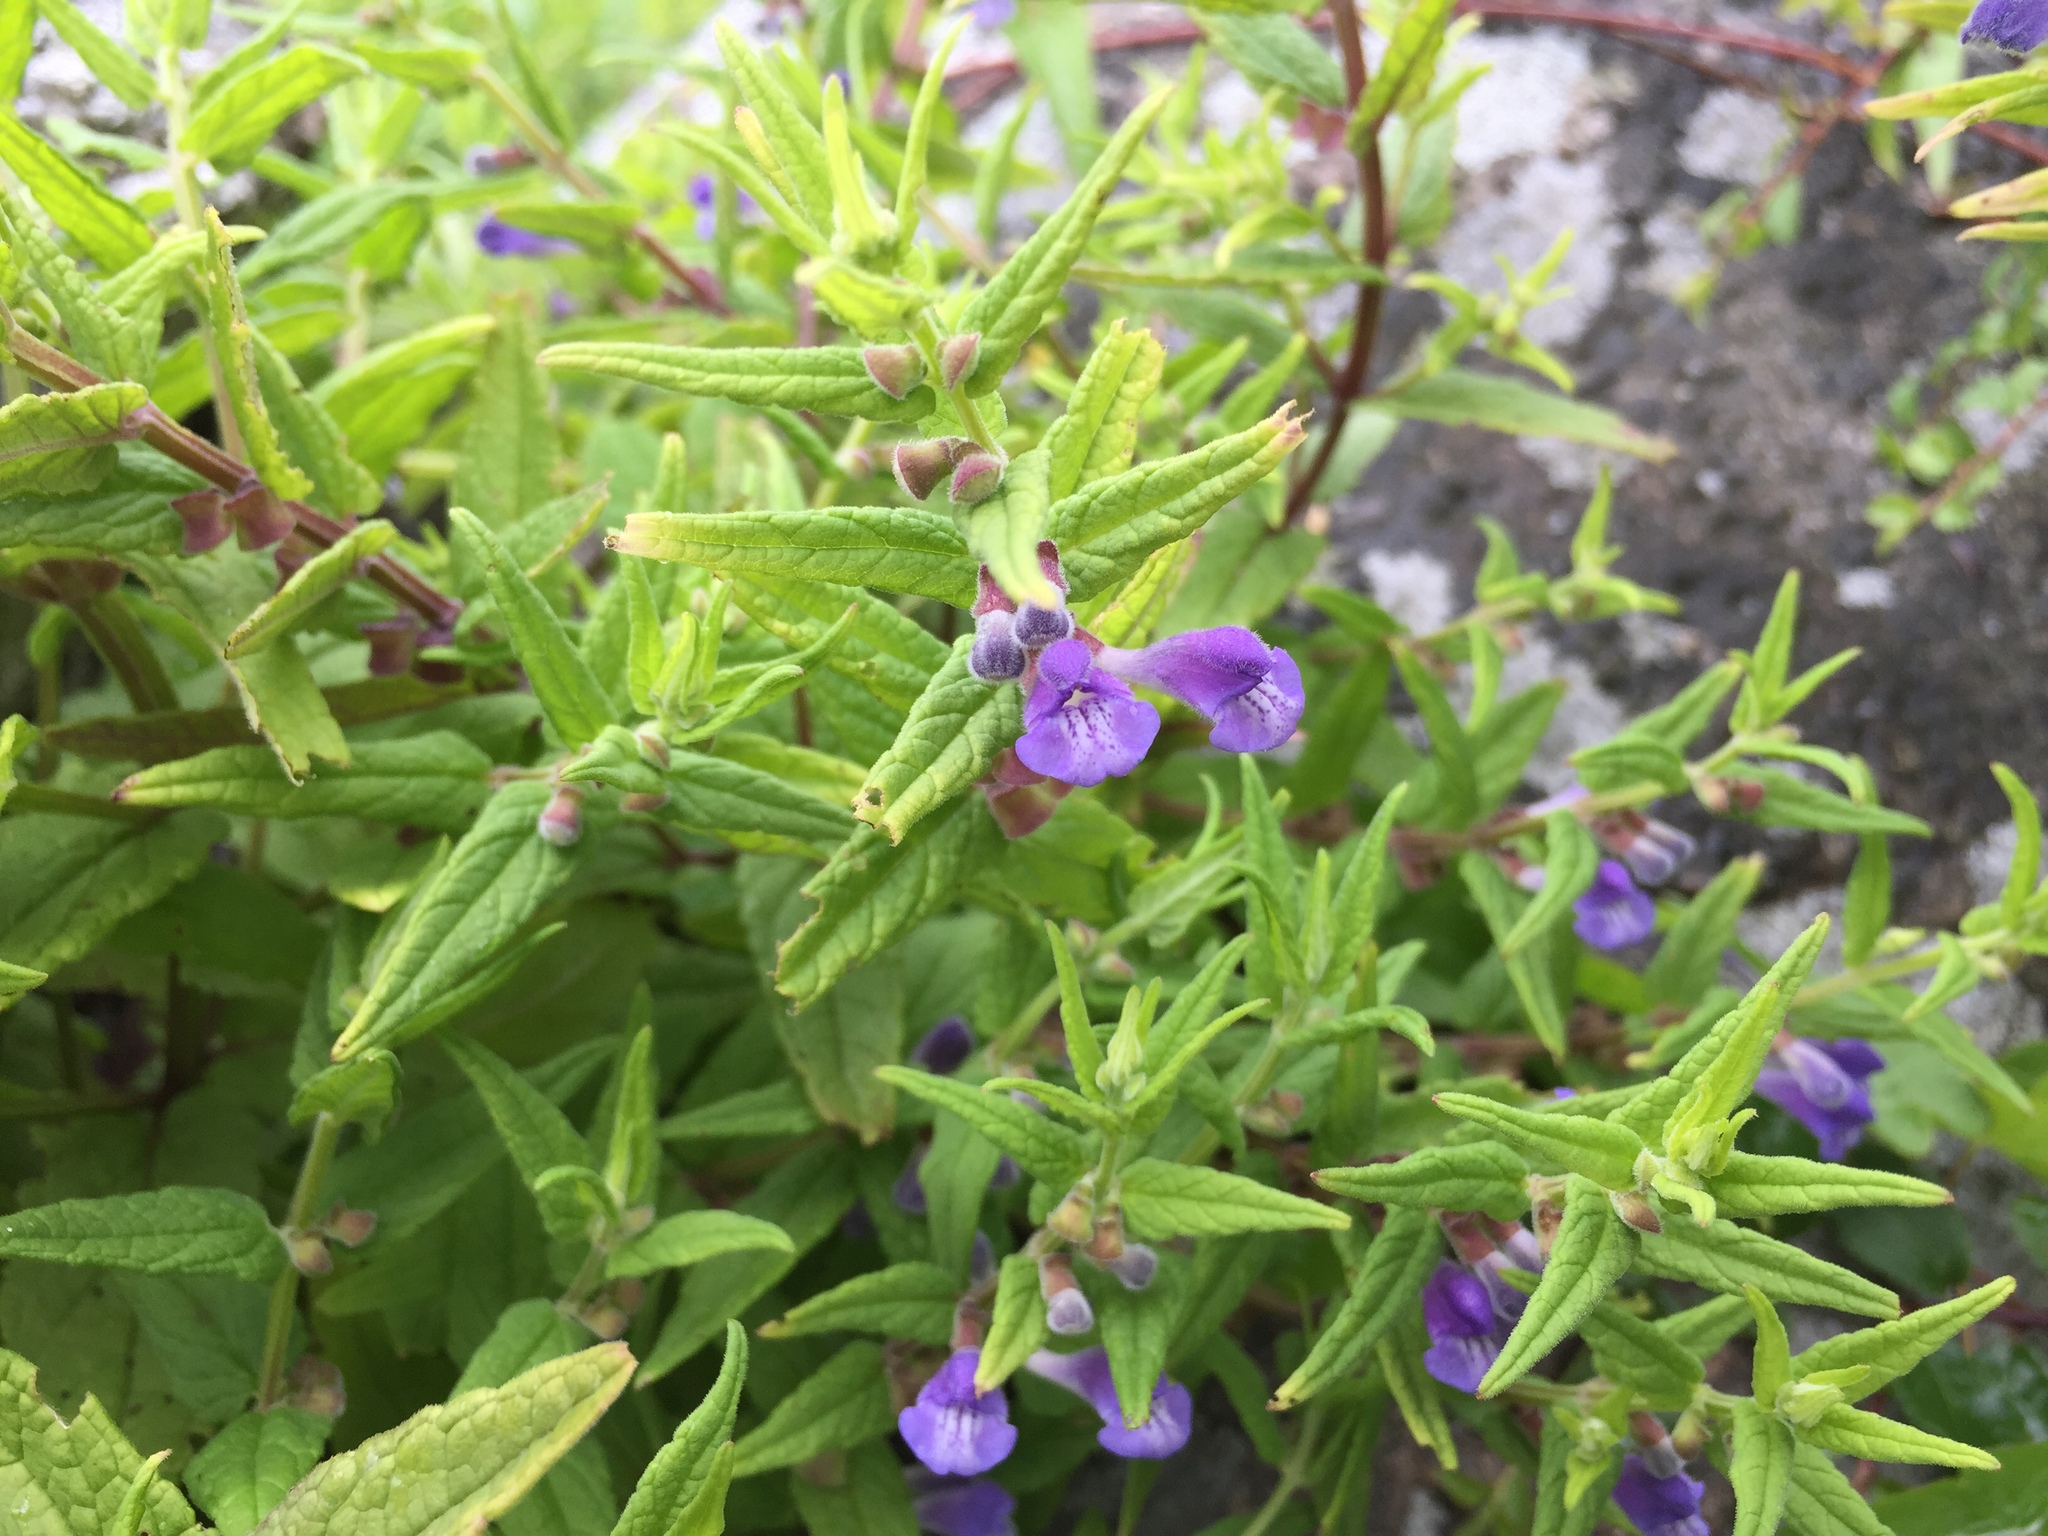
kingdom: Plantae
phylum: Tracheophyta
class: Magnoliopsida
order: Lamiales
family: Lamiaceae
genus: Scutellaria
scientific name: Scutellaria galericulata
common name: Skullcap
